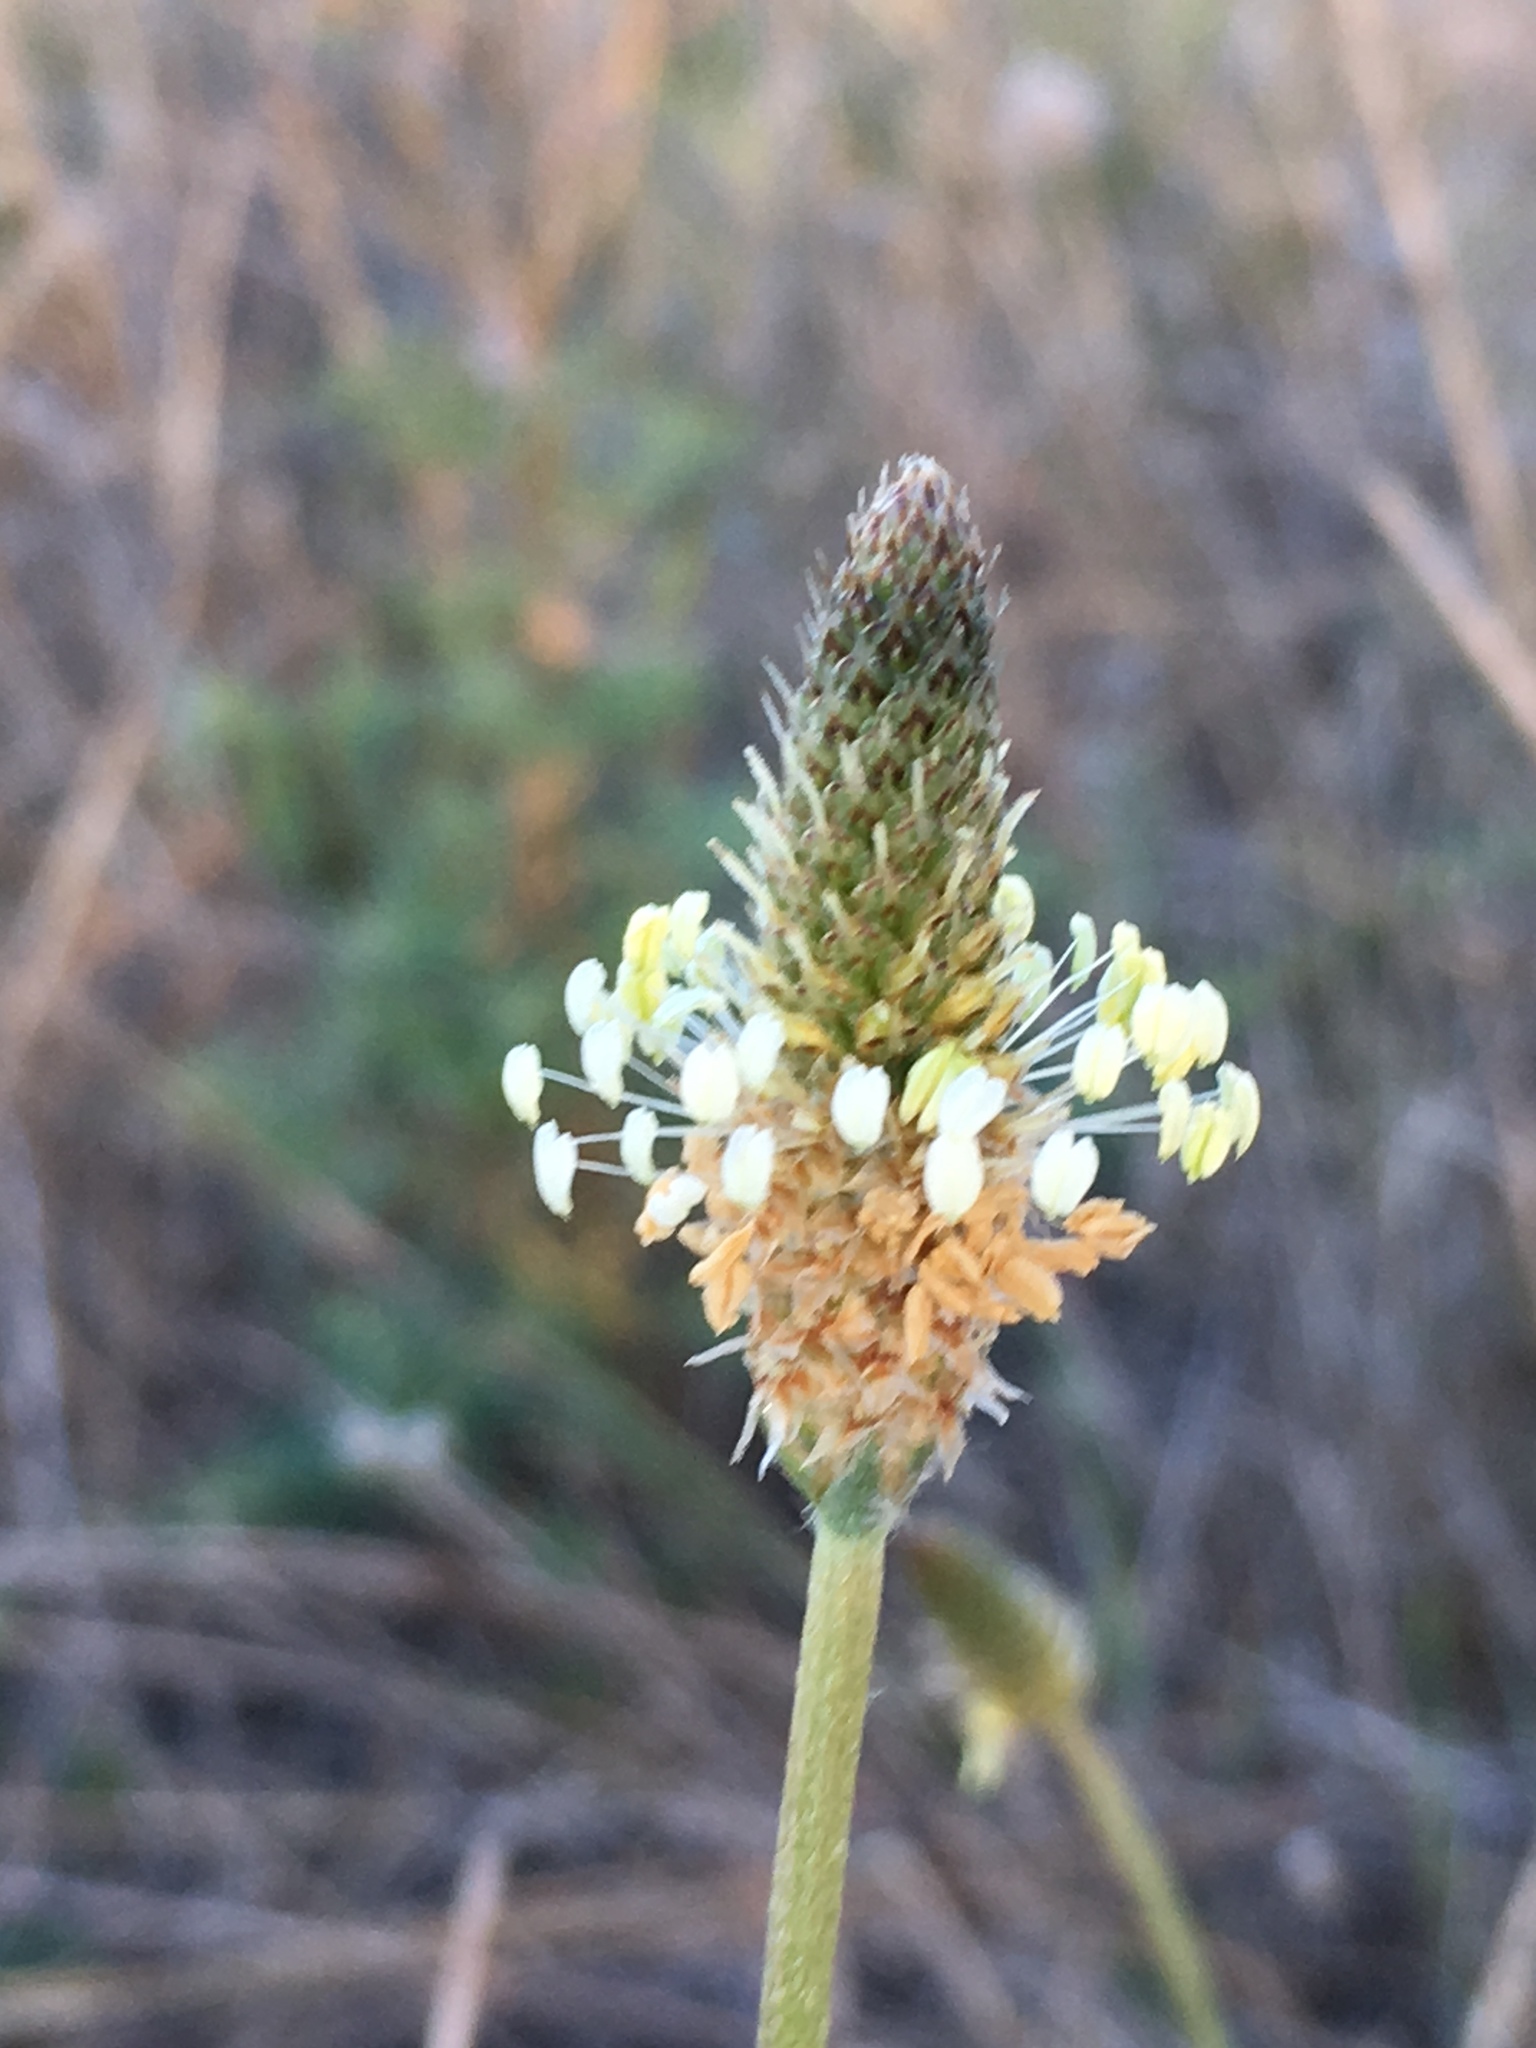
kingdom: Plantae
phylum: Tracheophyta
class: Magnoliopsida
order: Lamiales
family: Plantaginaceae
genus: Plantago
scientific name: Plantago lanceolata
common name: Ribwort plantain
